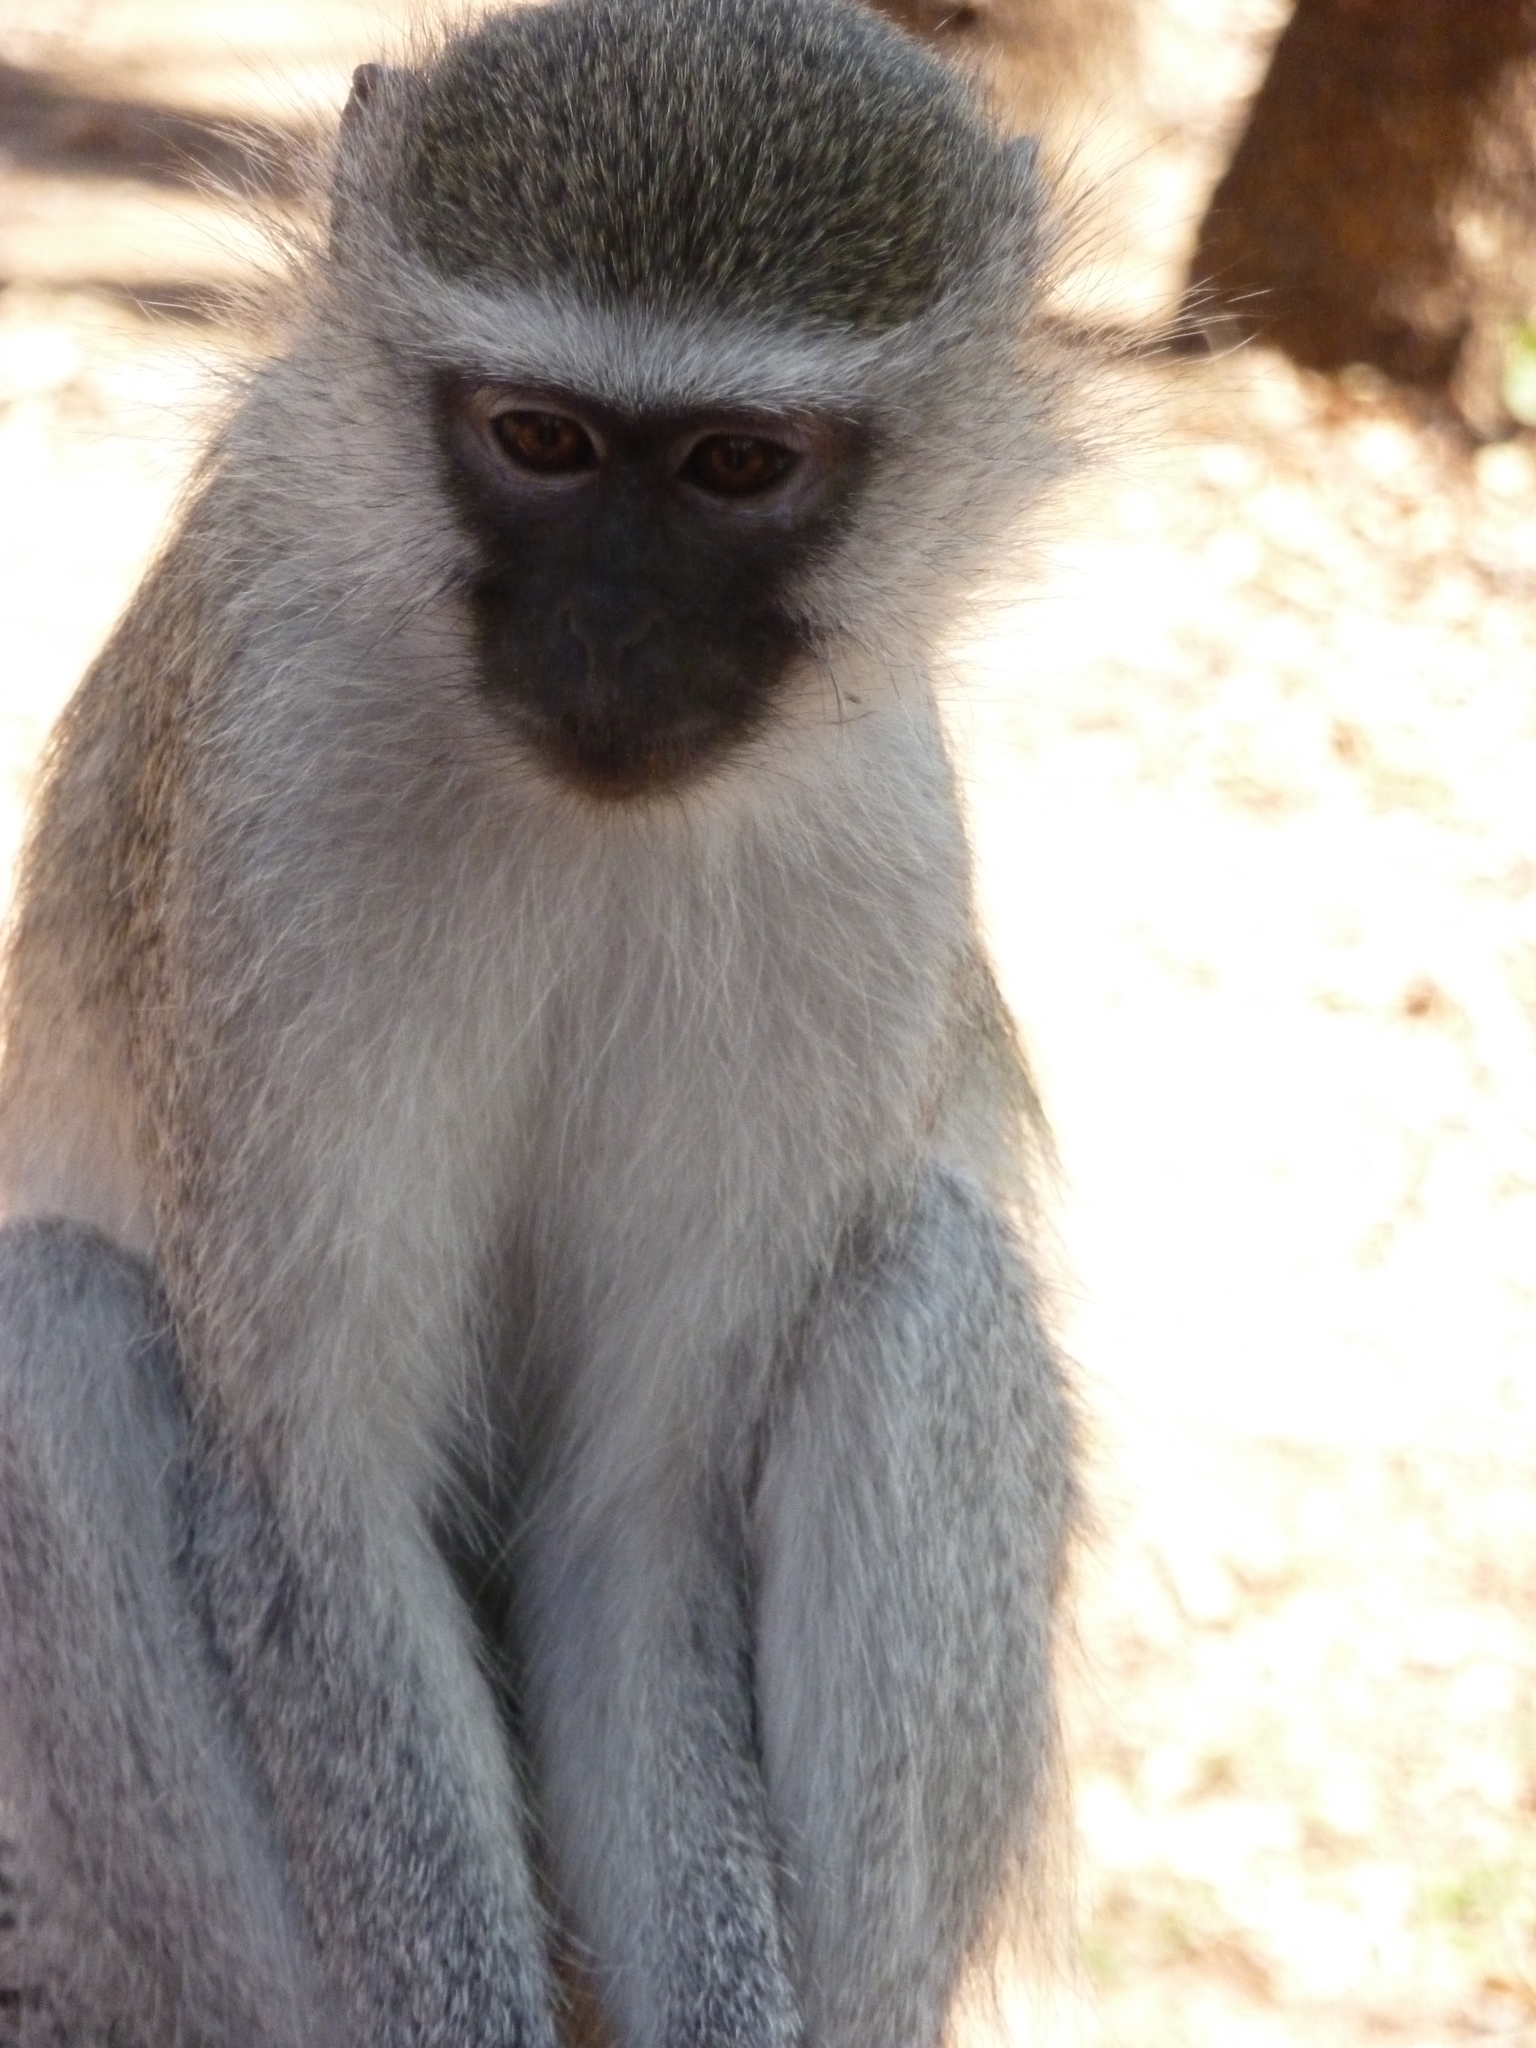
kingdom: Animalia
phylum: Chordata
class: Mammalia
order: Primates
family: Cercopithecidae
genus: Chlorocebus
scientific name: Chlorocebus pygerythrus
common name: Vervet monkey
